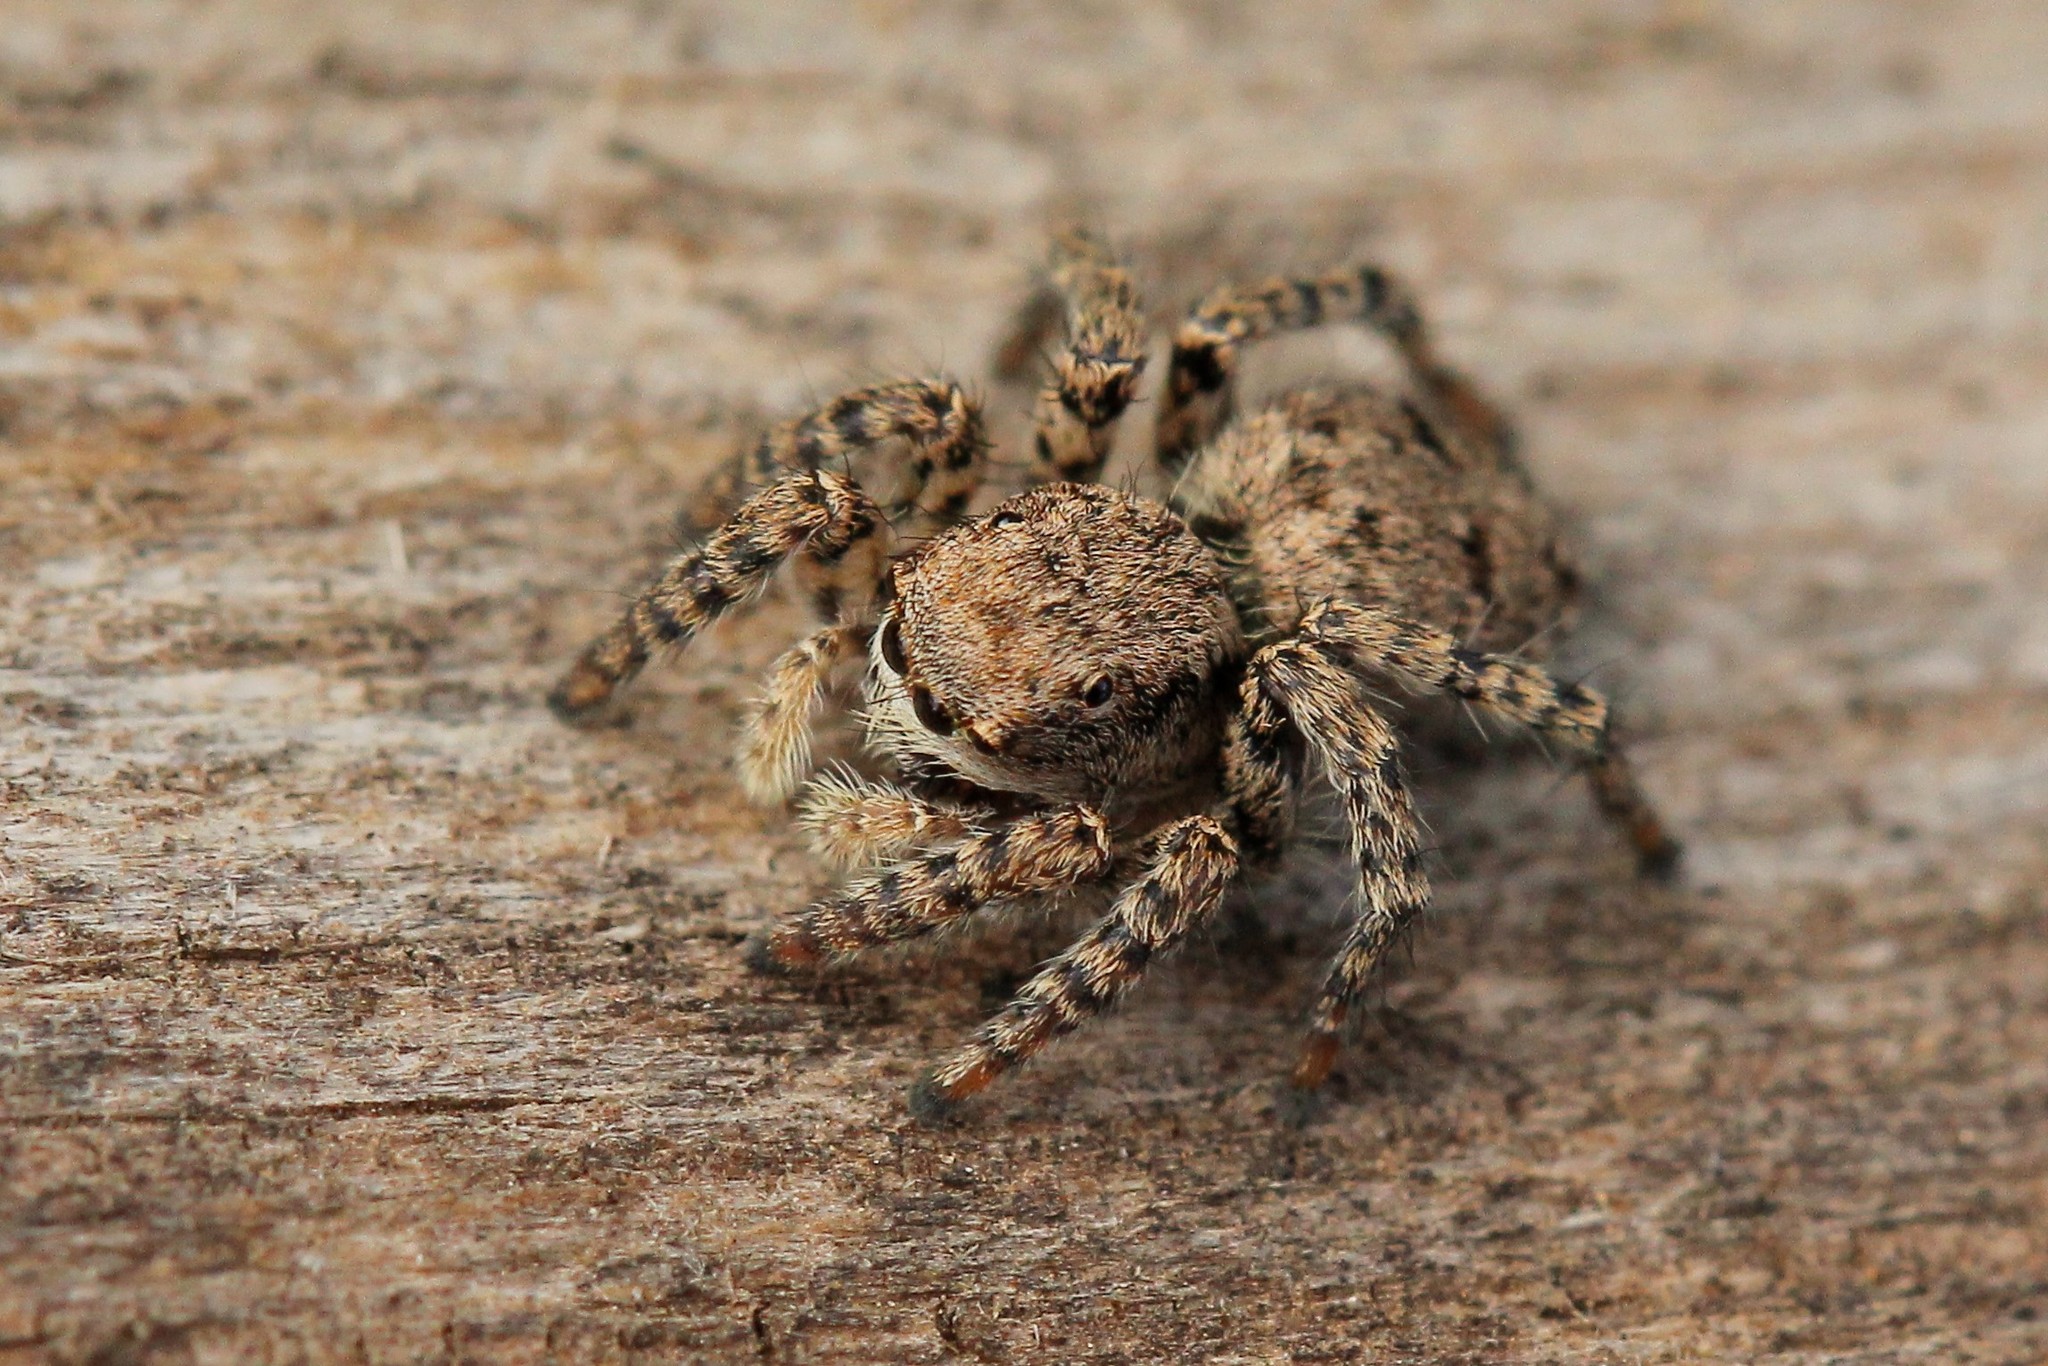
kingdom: Animalia
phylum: Arthropoda
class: Arachnida
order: Araneae
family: Salticidae
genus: Asianellus
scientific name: Asianellus festivus
